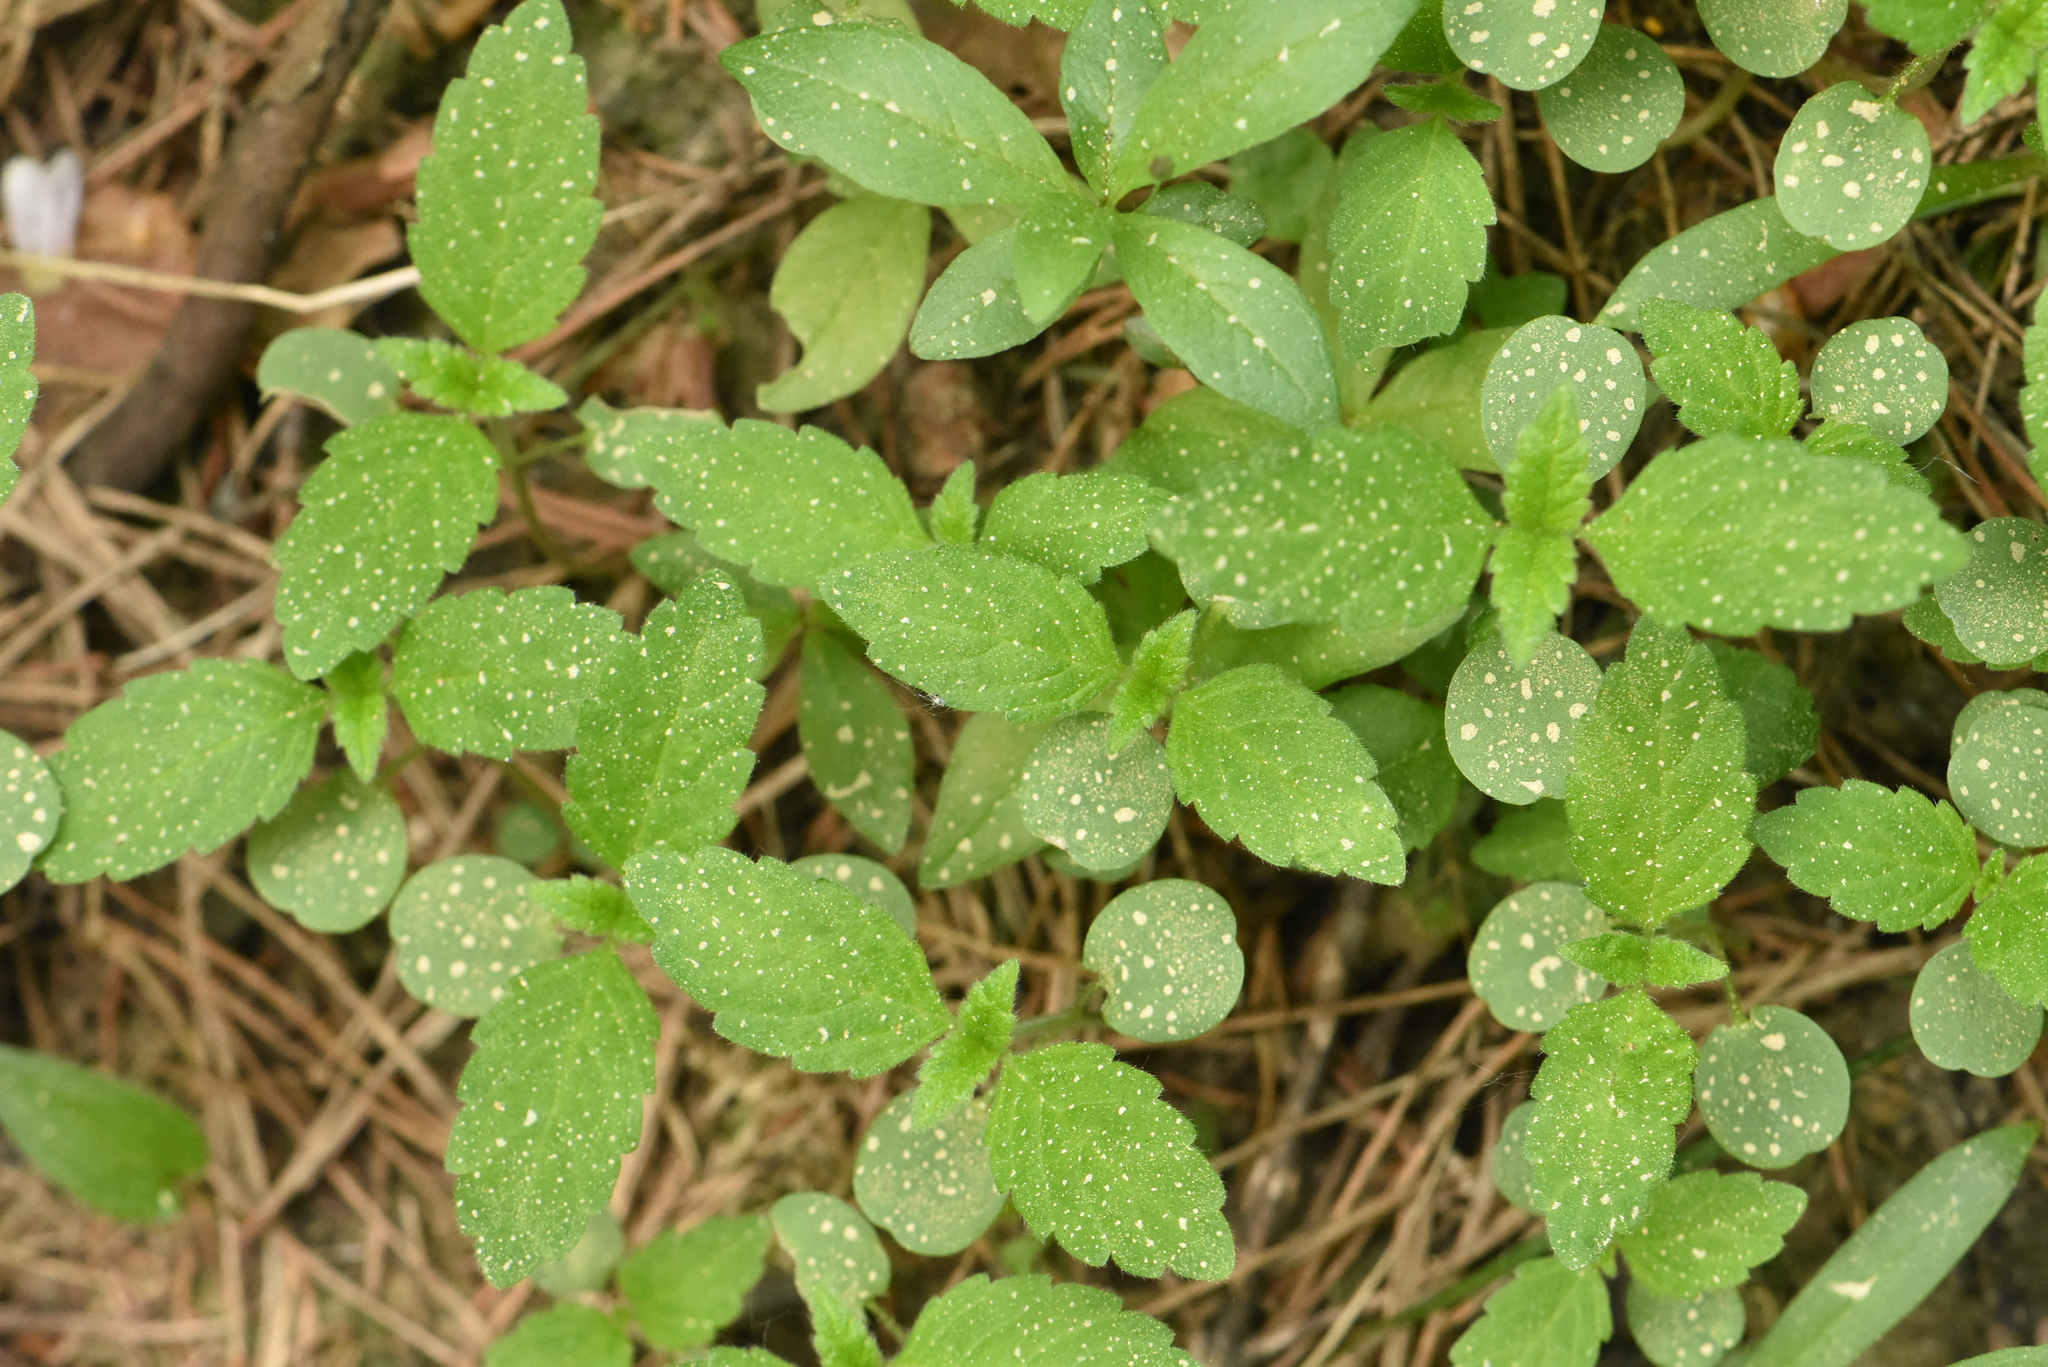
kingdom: Plantae
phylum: Tracheophyta
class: Magnoliopsida
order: Lamiales
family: Lamiaceae
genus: Galeopsis
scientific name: Galeopsis bifida
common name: Bifid hemp-nettle
